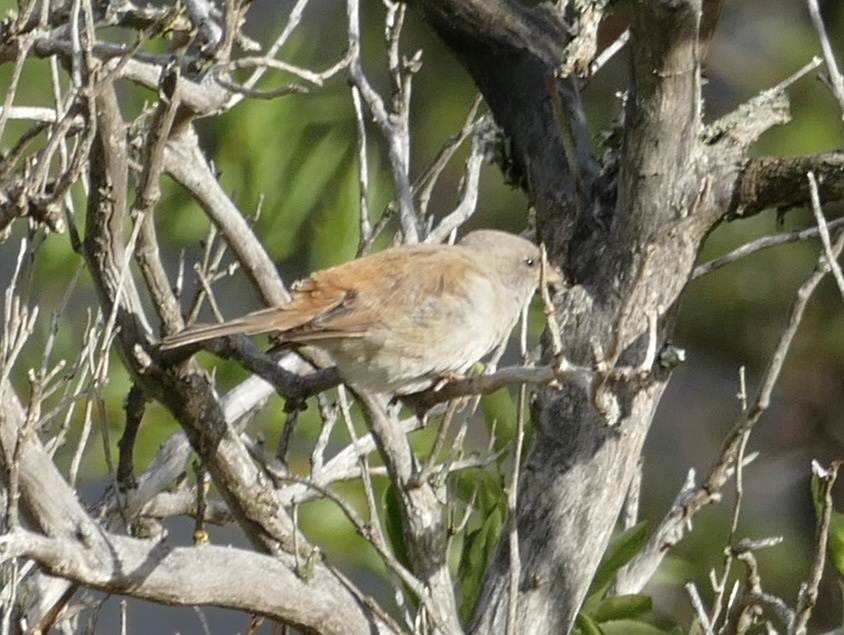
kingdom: Animalia
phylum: Chordata
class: Aves
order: Passeriformes
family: Passeridae
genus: Passer
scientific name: Passer diffusus
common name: Southern grey-headed sparrow
